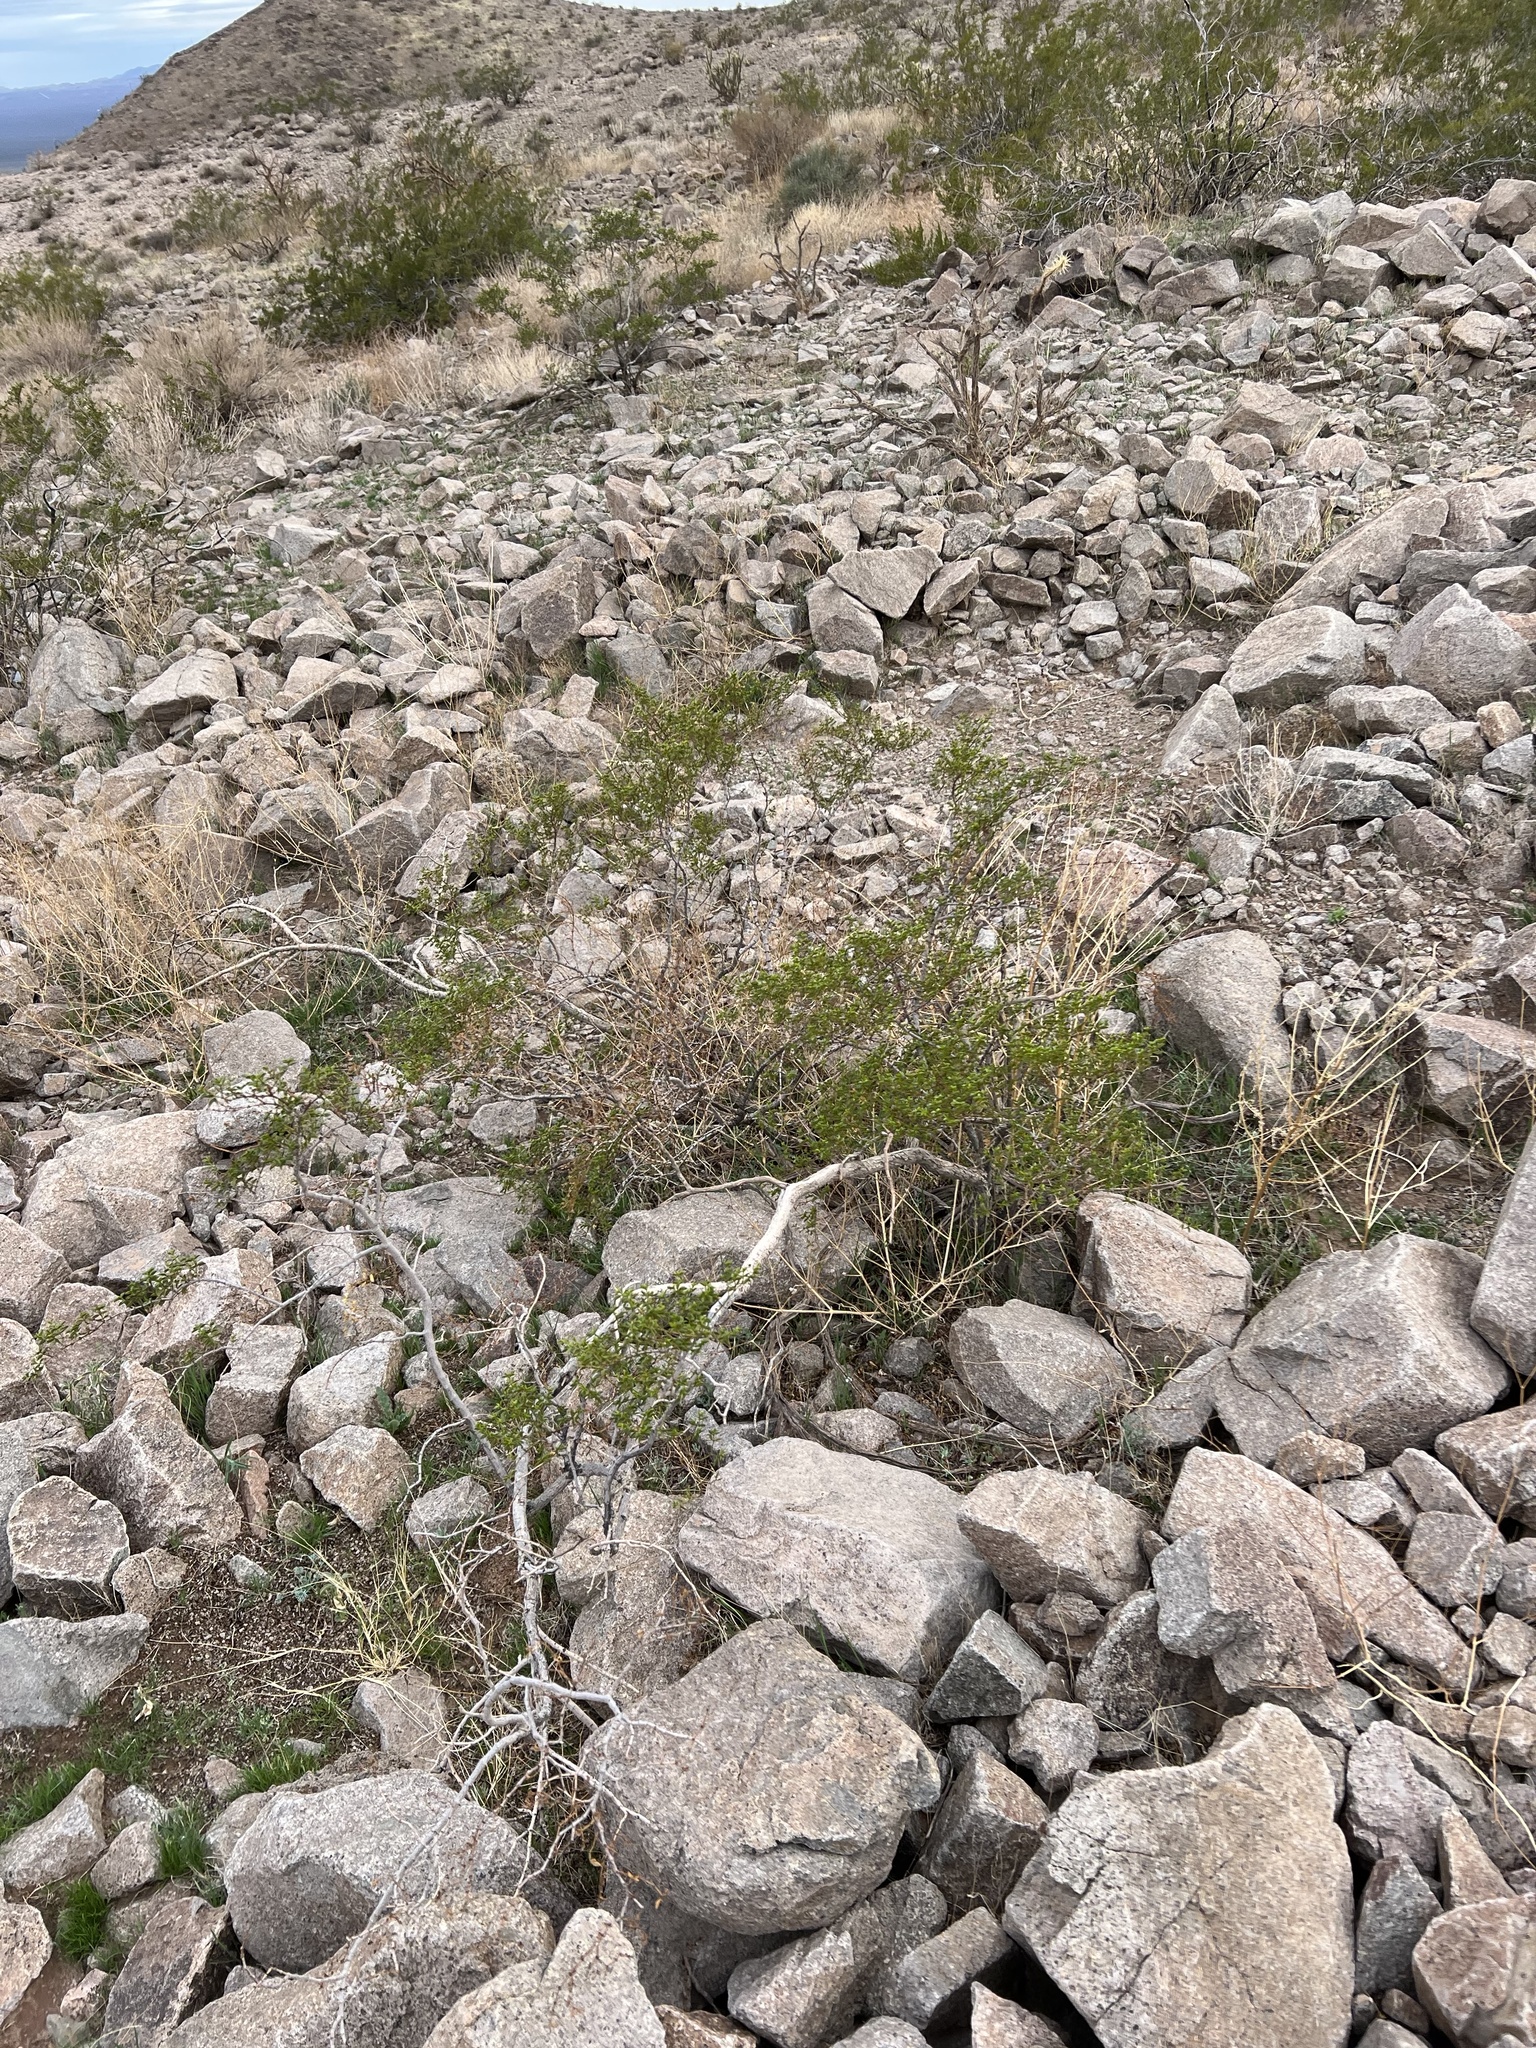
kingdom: Plantae
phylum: Tracheophyta
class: Magnoliopsida
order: Zygophyllales
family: Zygophyllaceae
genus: Larrea
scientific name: Larrea tridentata
